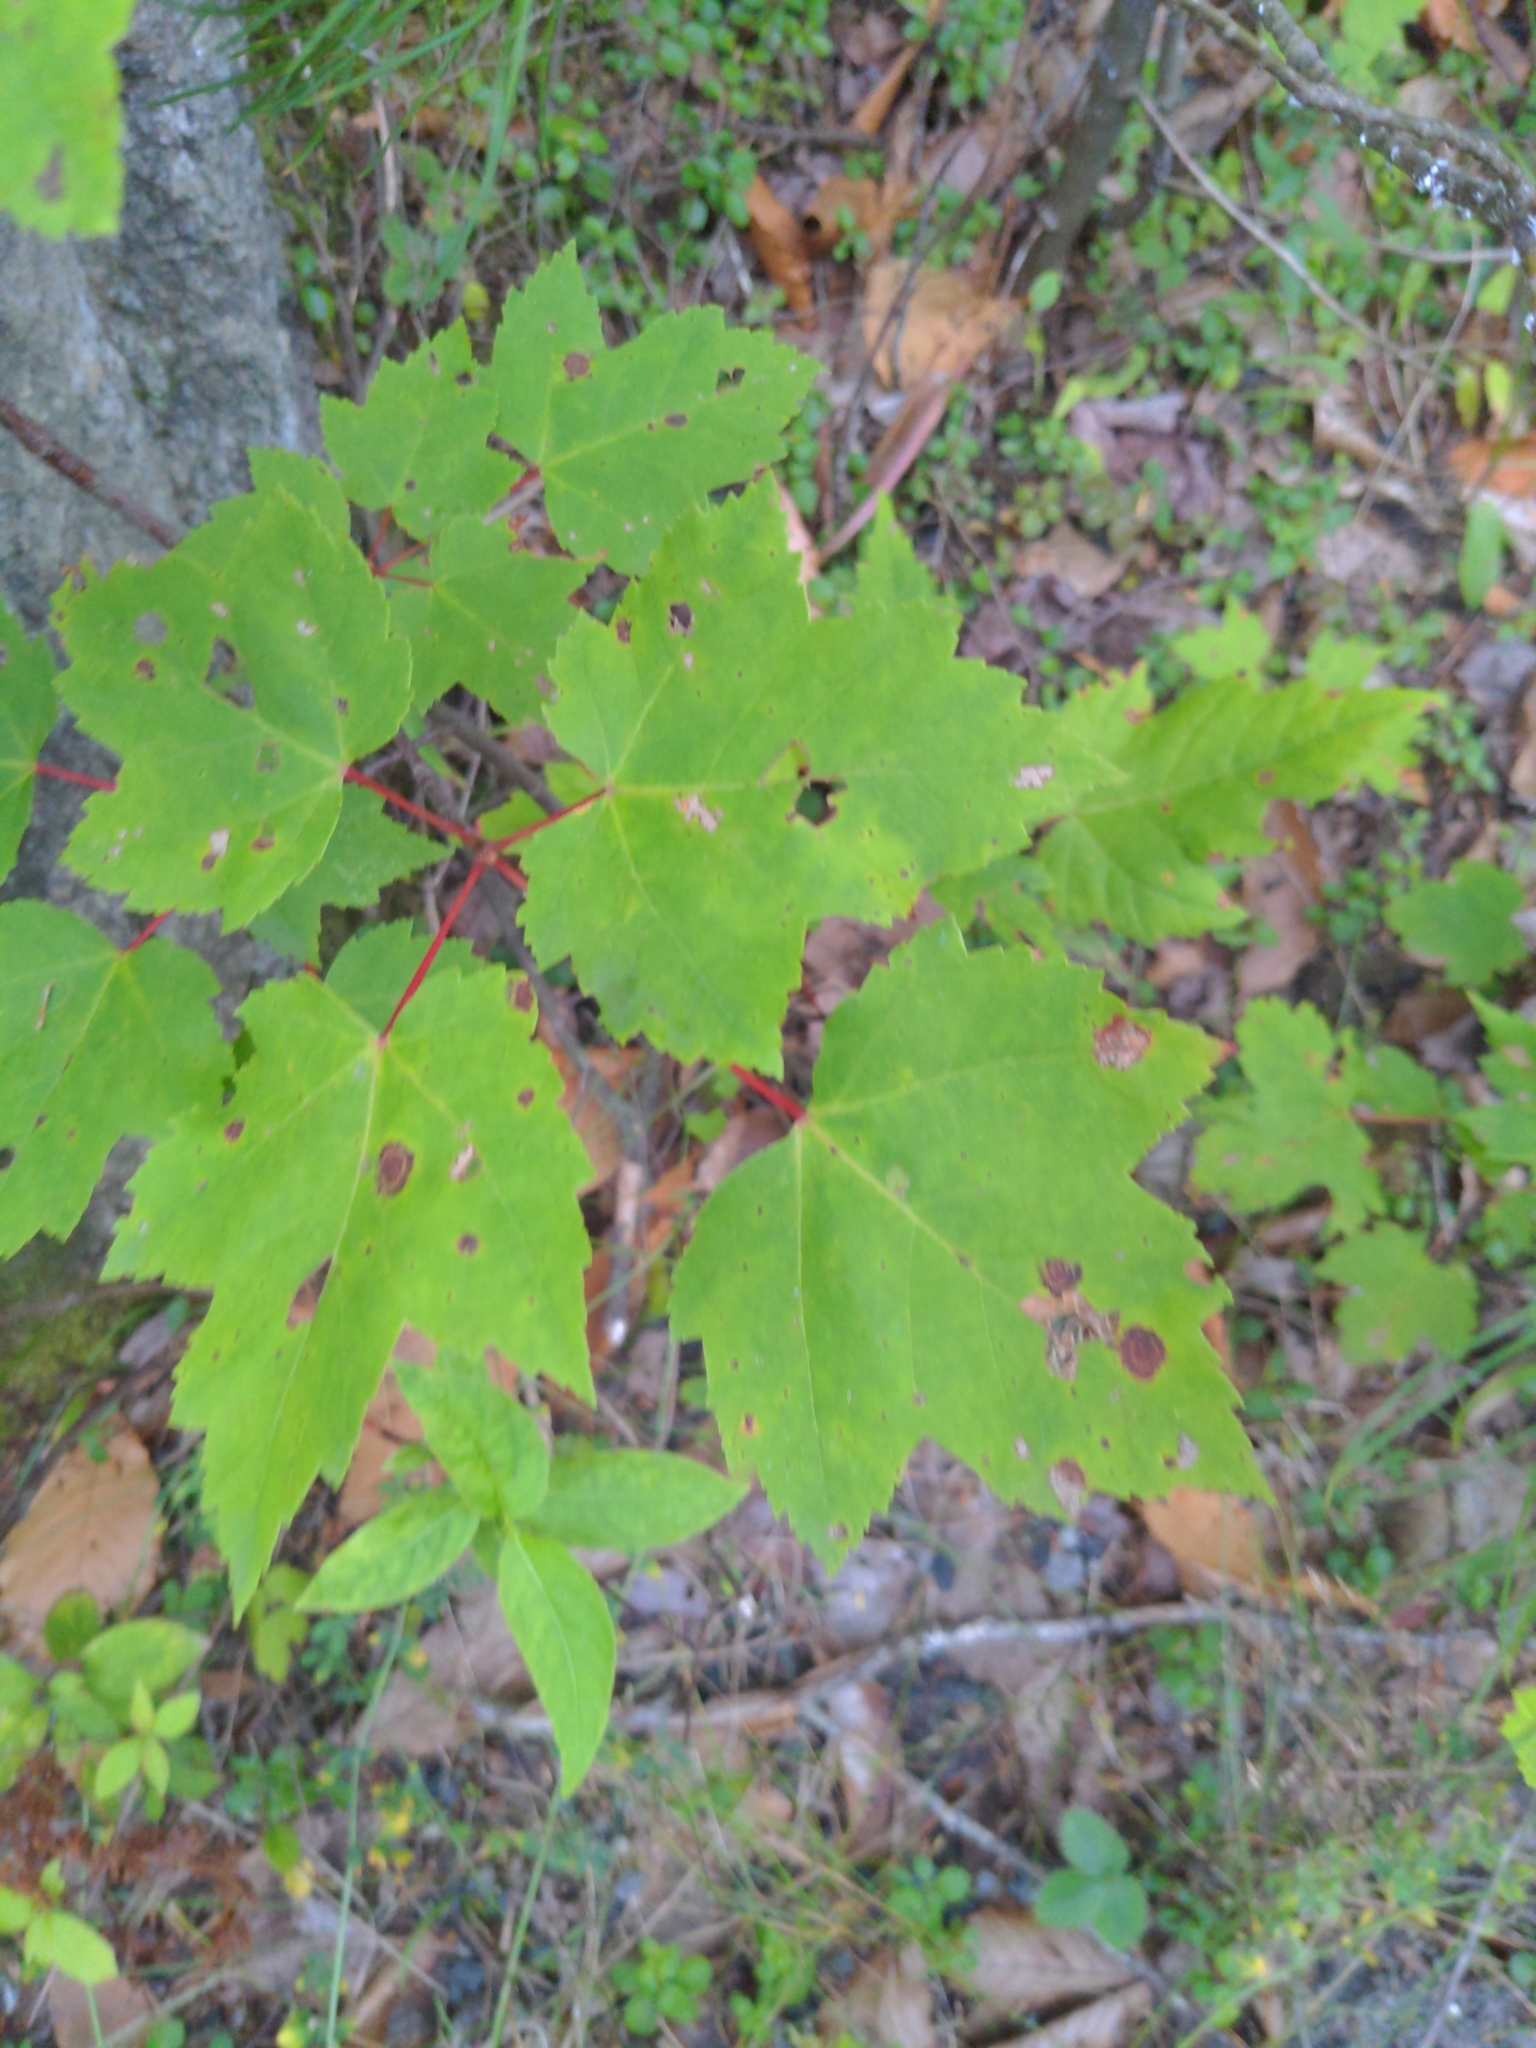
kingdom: Plantae
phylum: Tracheophyta
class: Magnoliopsida
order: Sapindales
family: Sapindaceae
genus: Acer
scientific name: Acer rubrum
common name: Red maple
